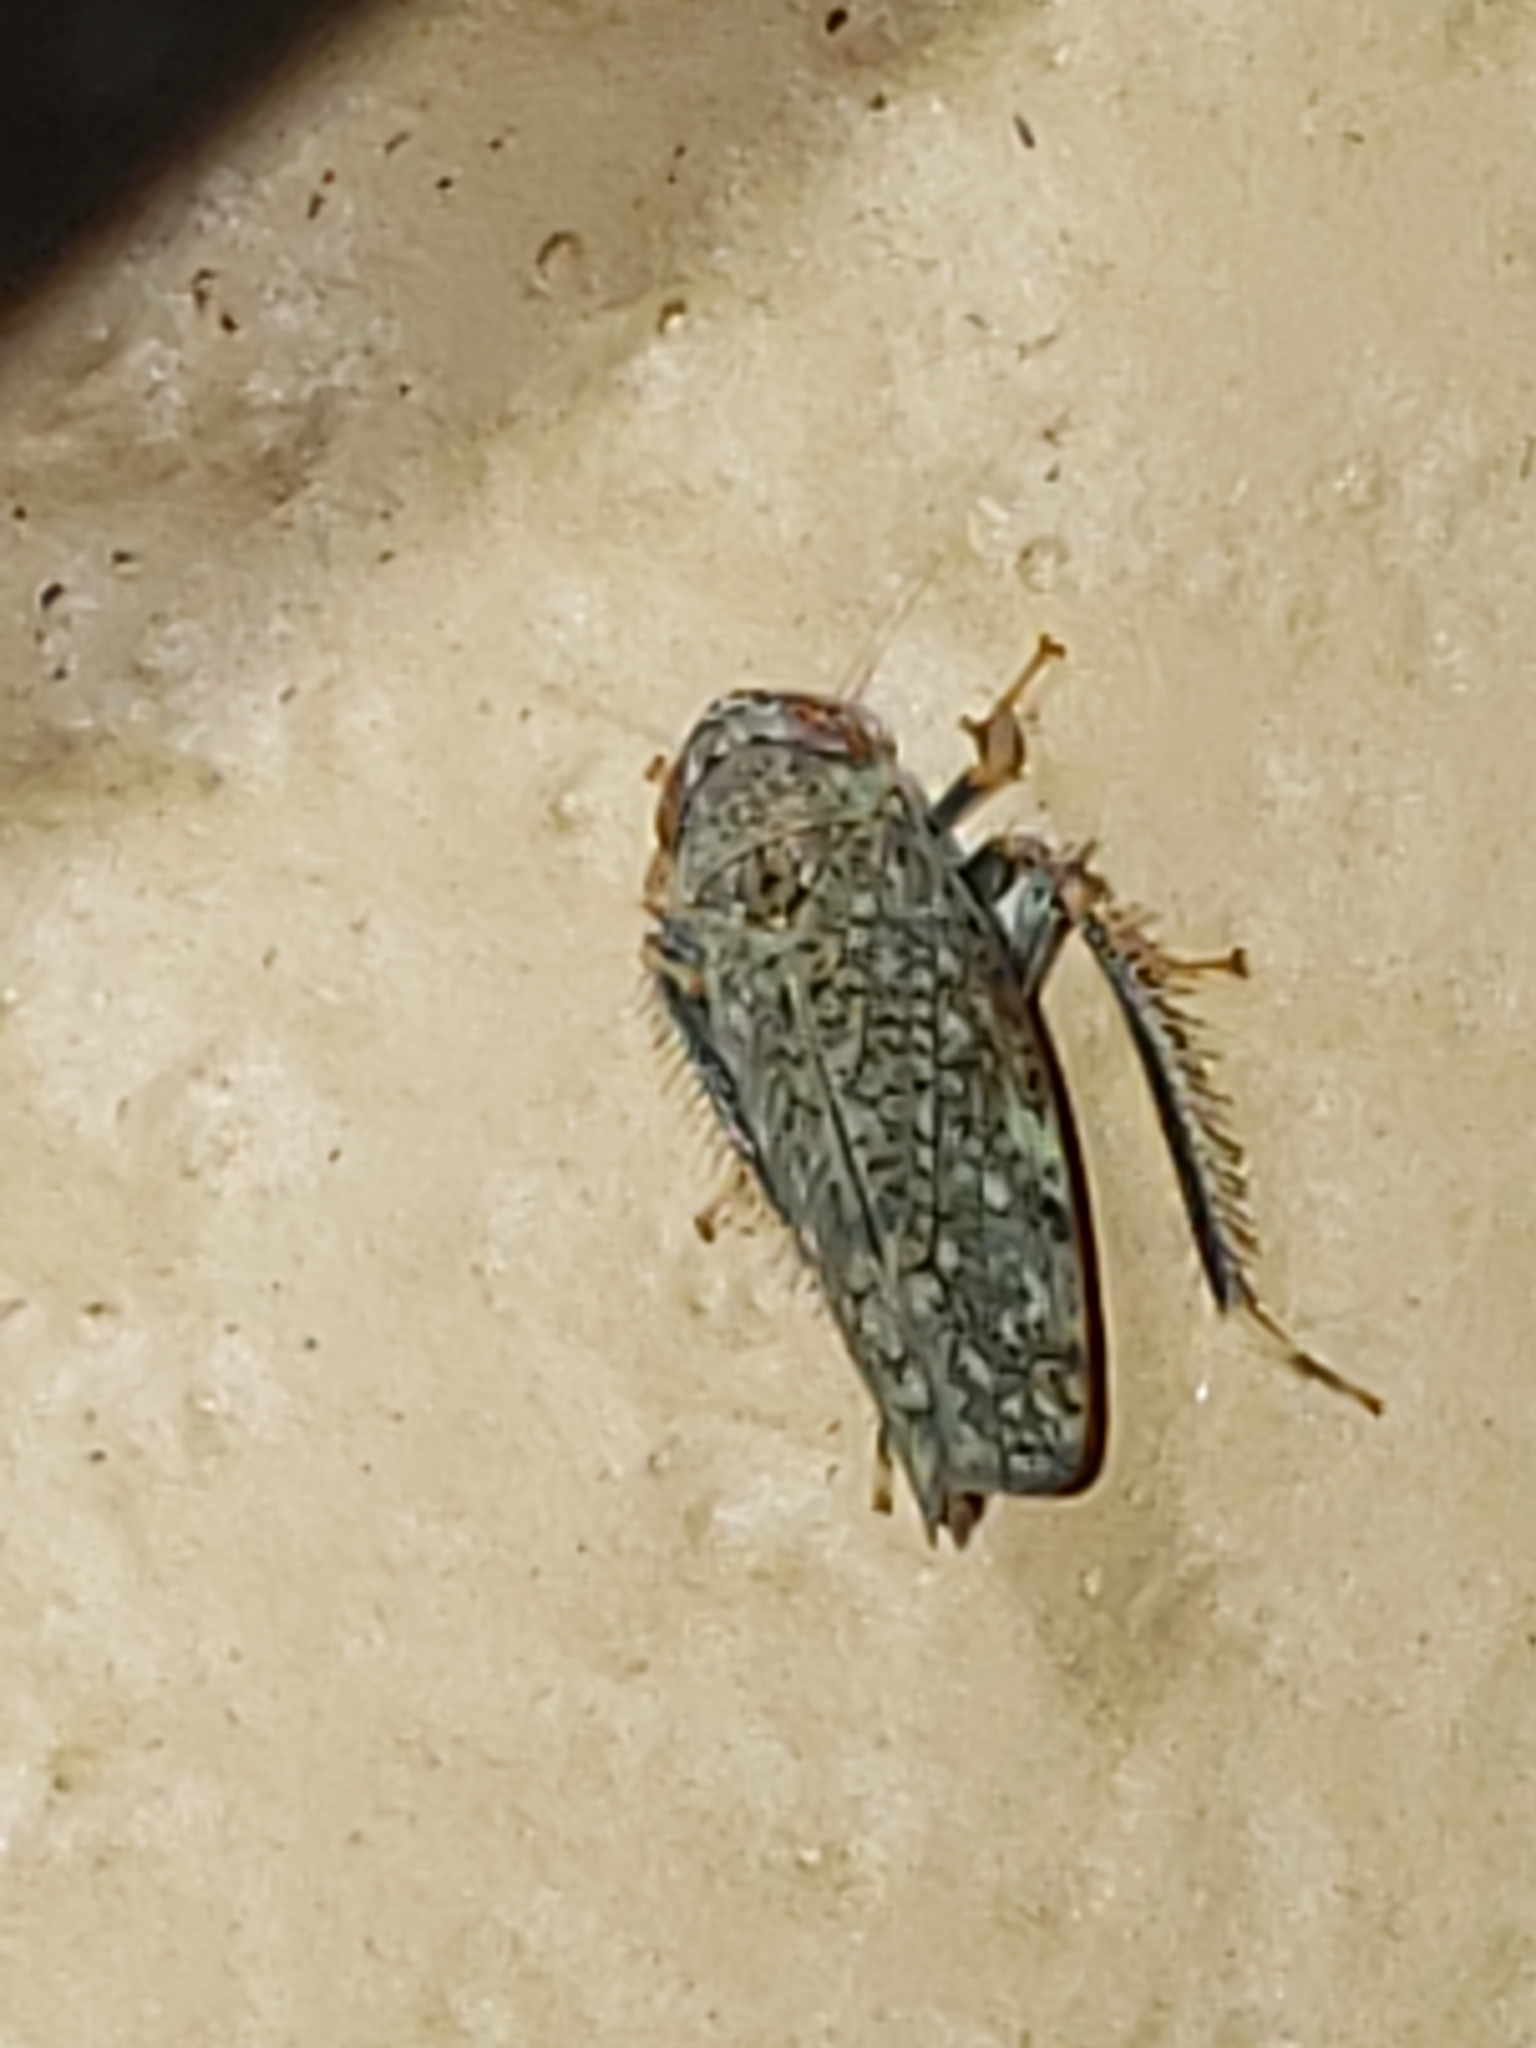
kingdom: Animalia
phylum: Arthropoda
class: Insecta
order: Hemiptera
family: Cicadellidae
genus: Orientus
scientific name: Orientus ishidae
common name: Japanese leafhopper
